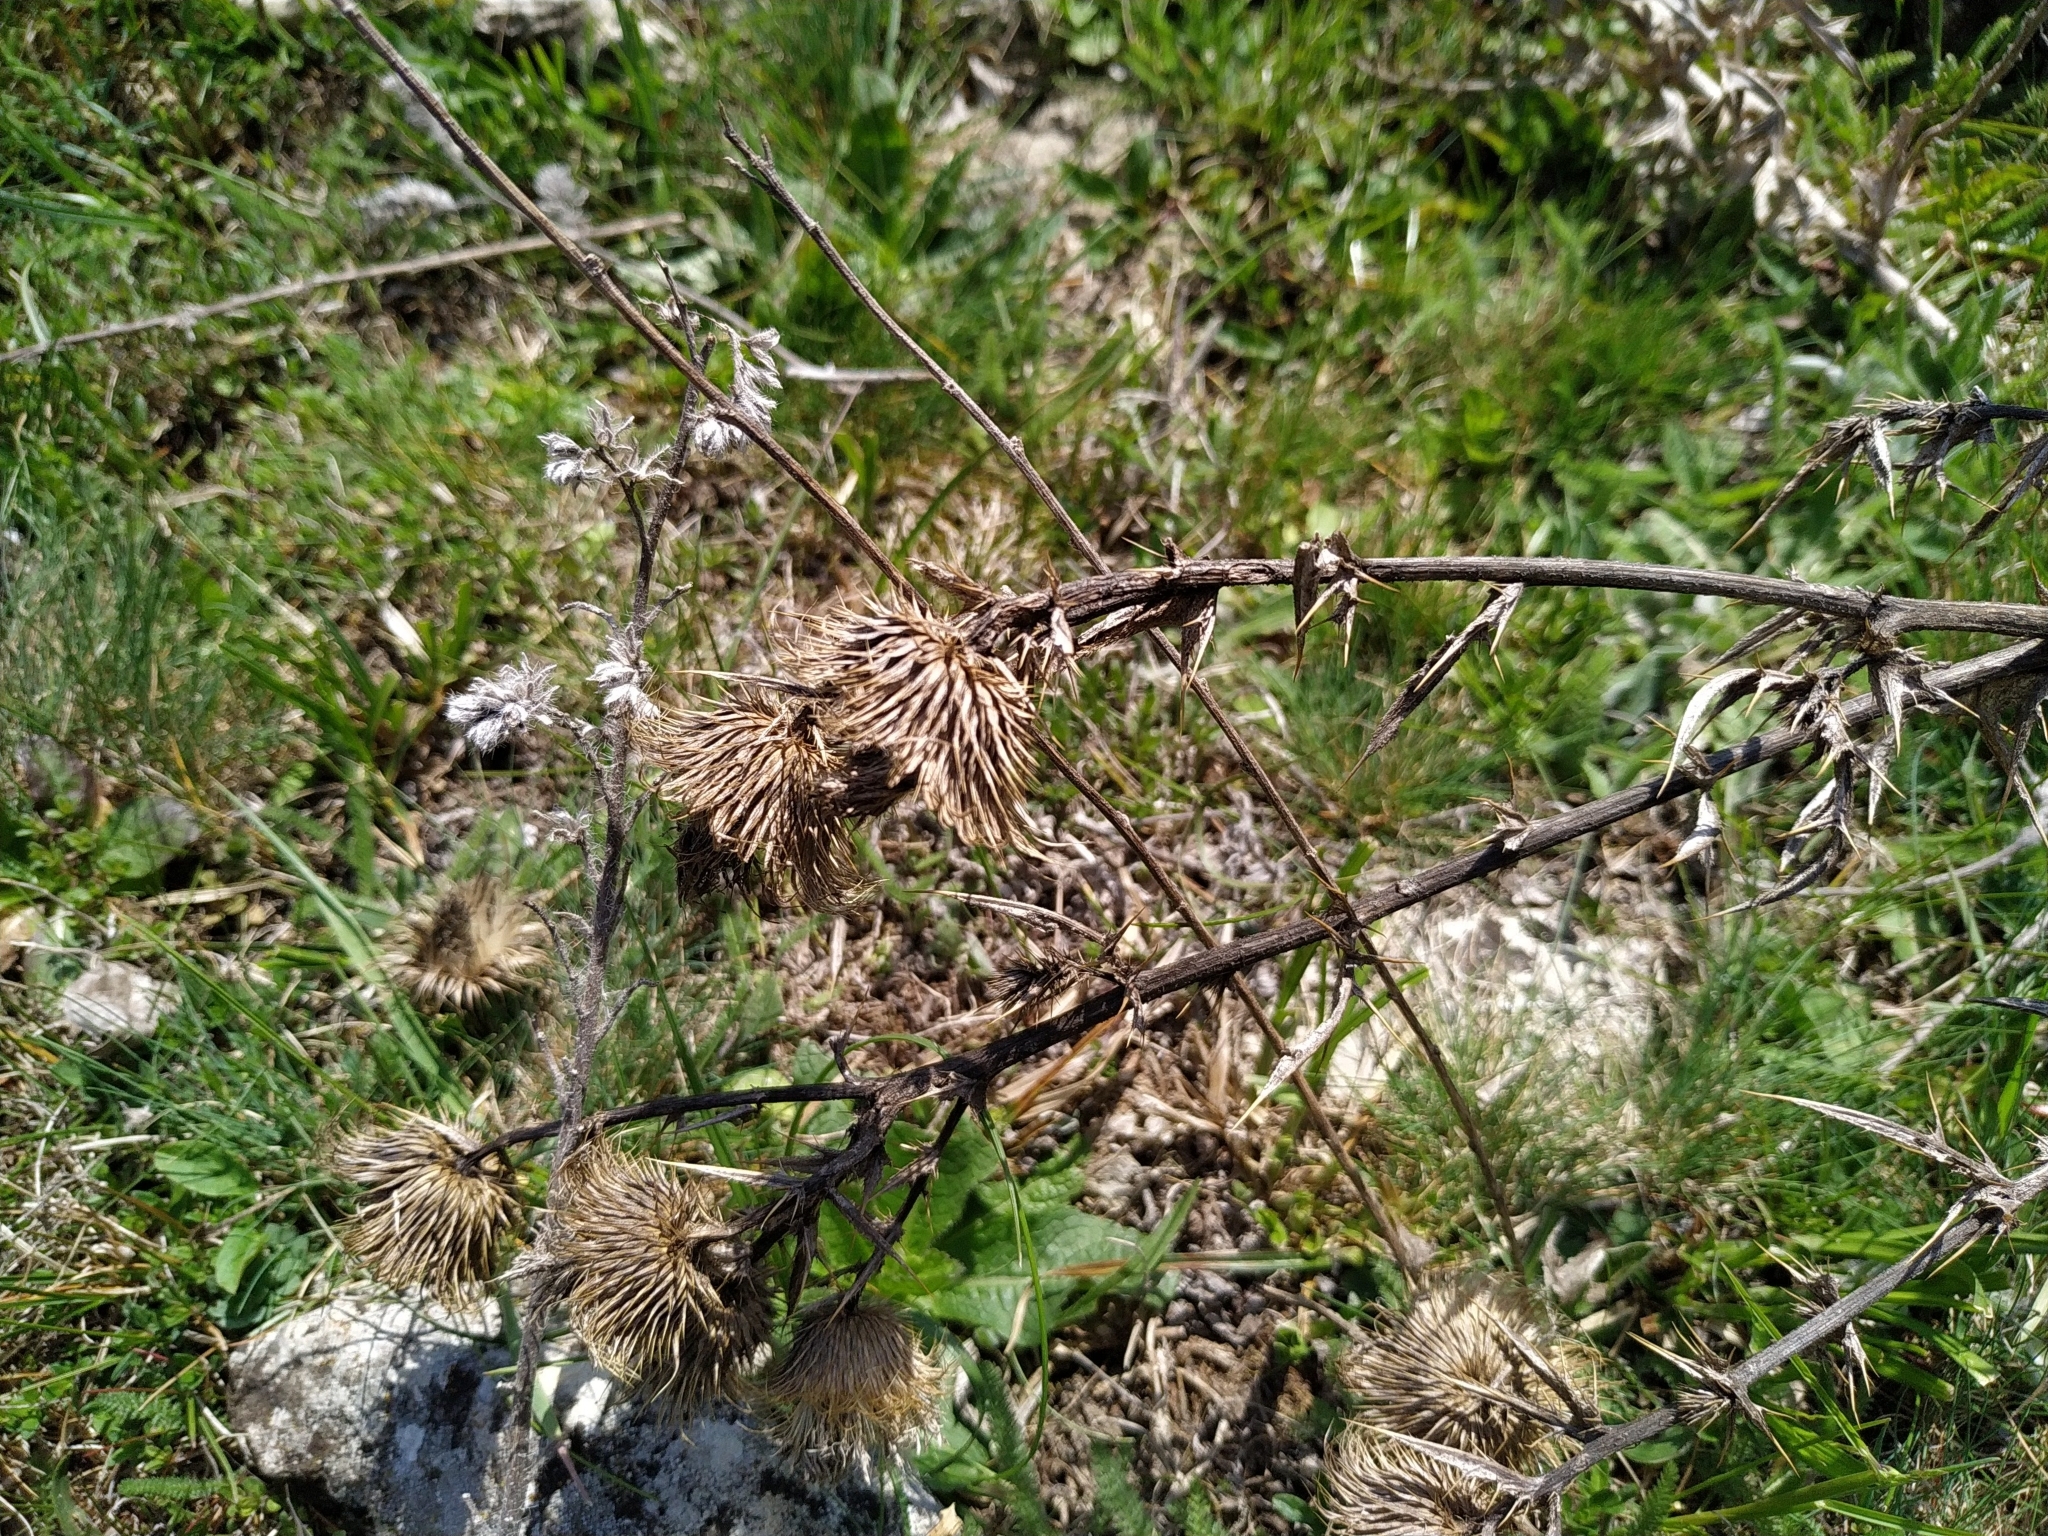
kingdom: Plantae
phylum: Tracheophyta
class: Magnoliopsida
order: Asterales
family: Asteraceae
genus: Cirsium
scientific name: Cirsium vulgare
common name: Bull thistle
